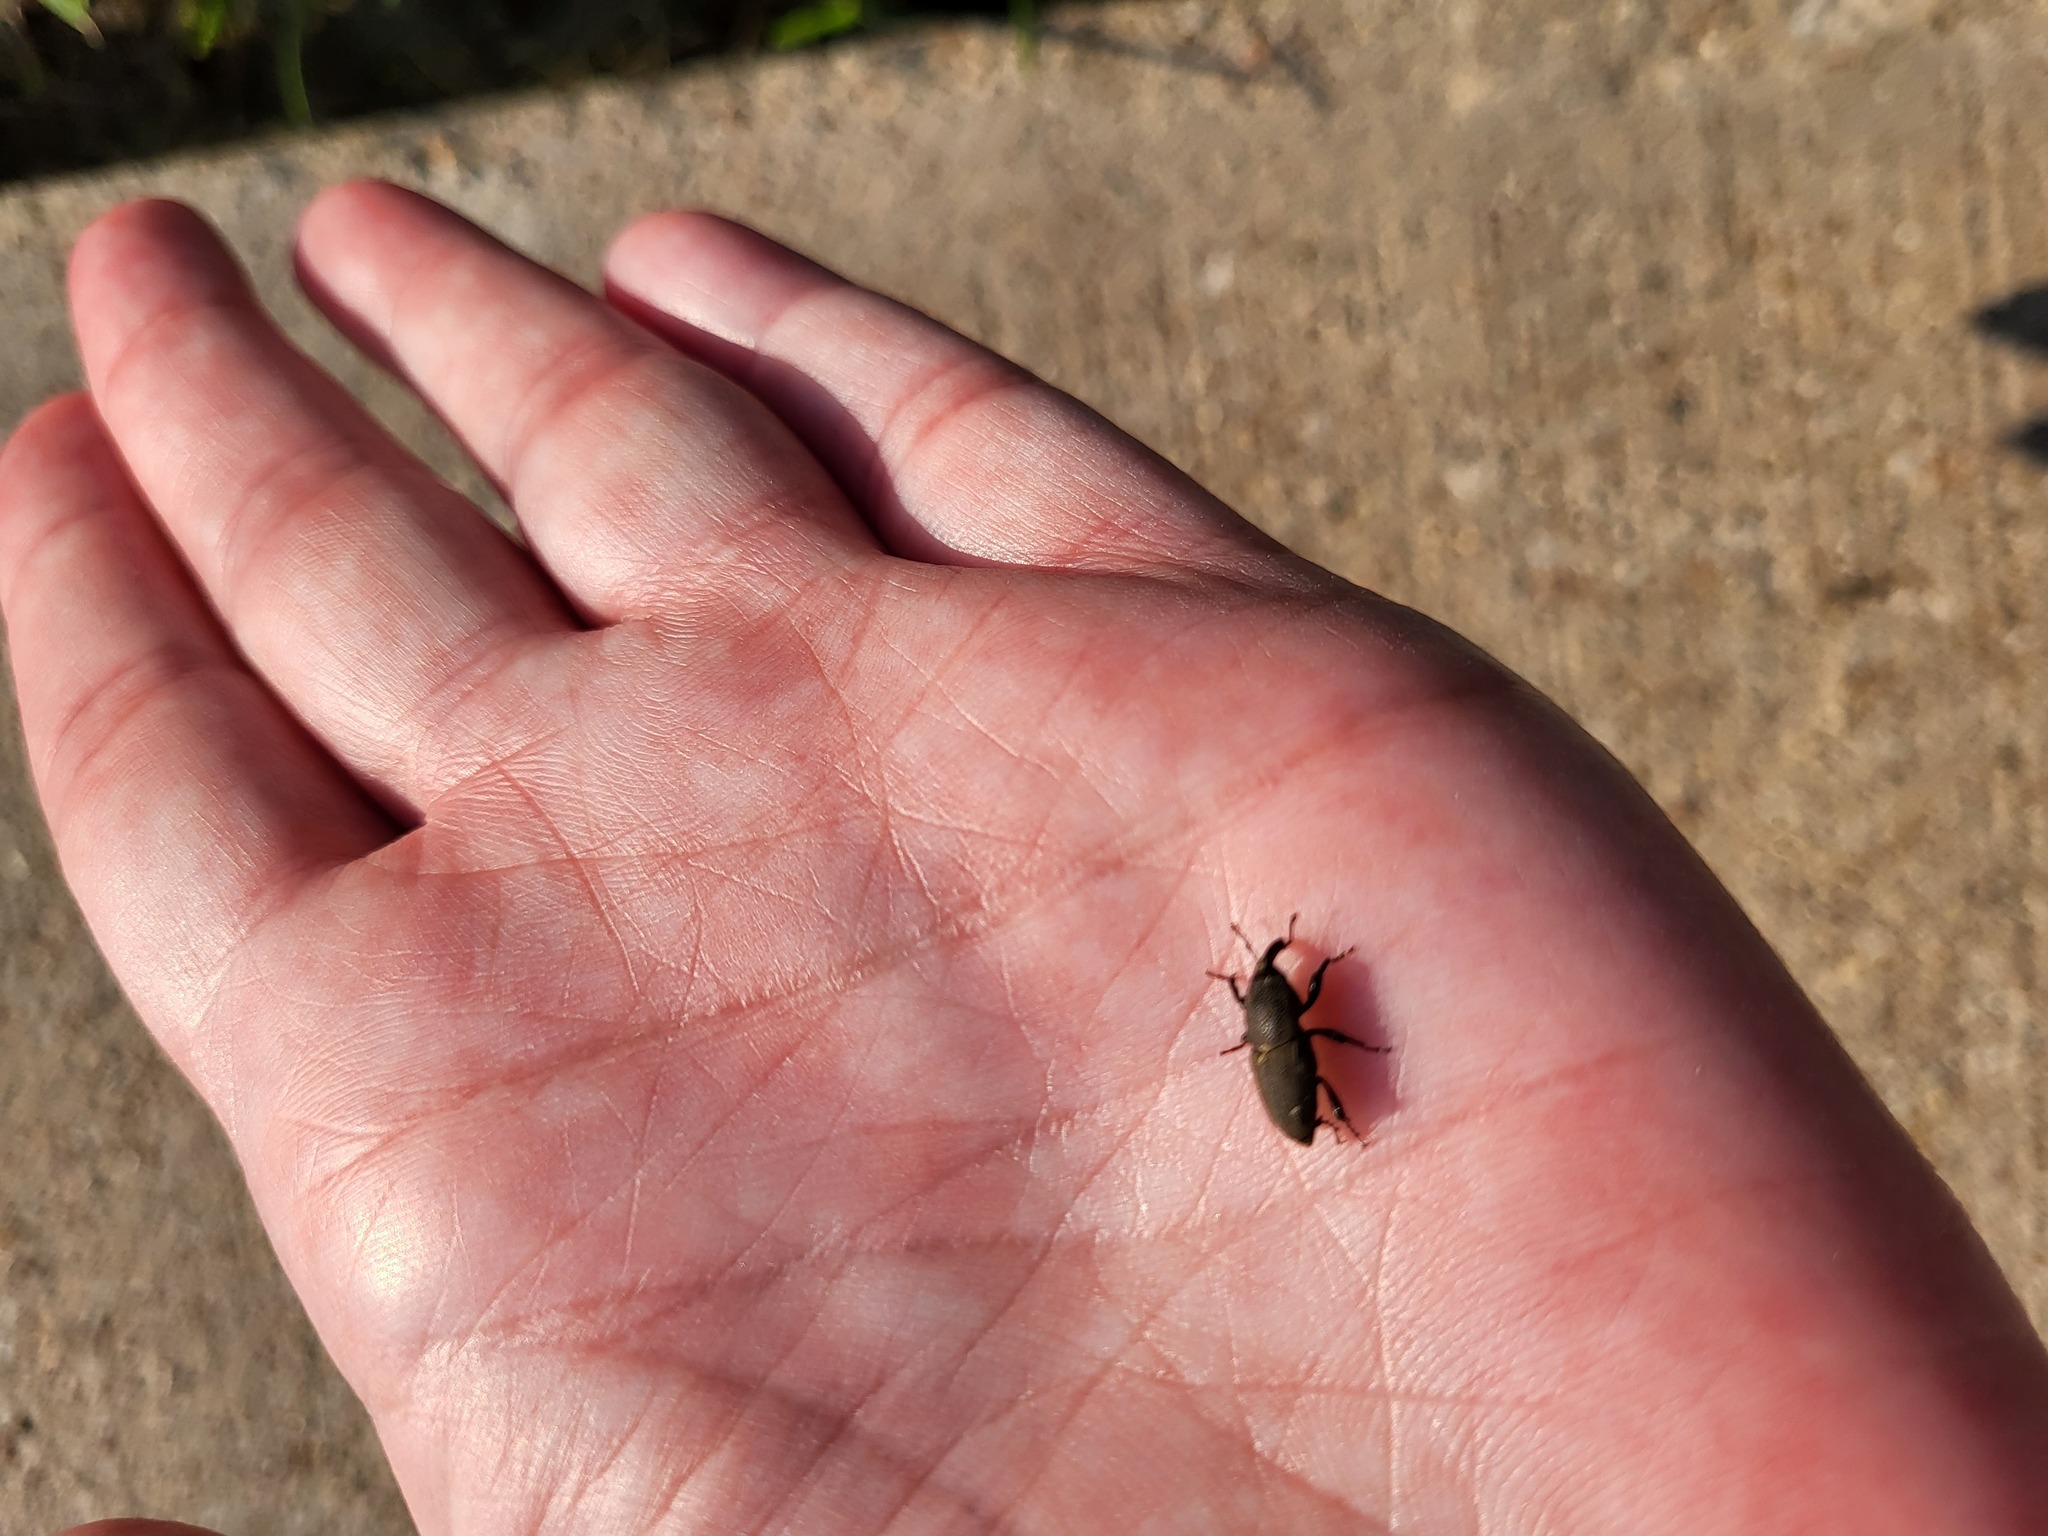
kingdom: Animalia
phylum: Arthropoda
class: Insecta
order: Coleoptera
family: Dryophthoridae
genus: Sphenophorus
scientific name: Sphenophorus coesifrons
